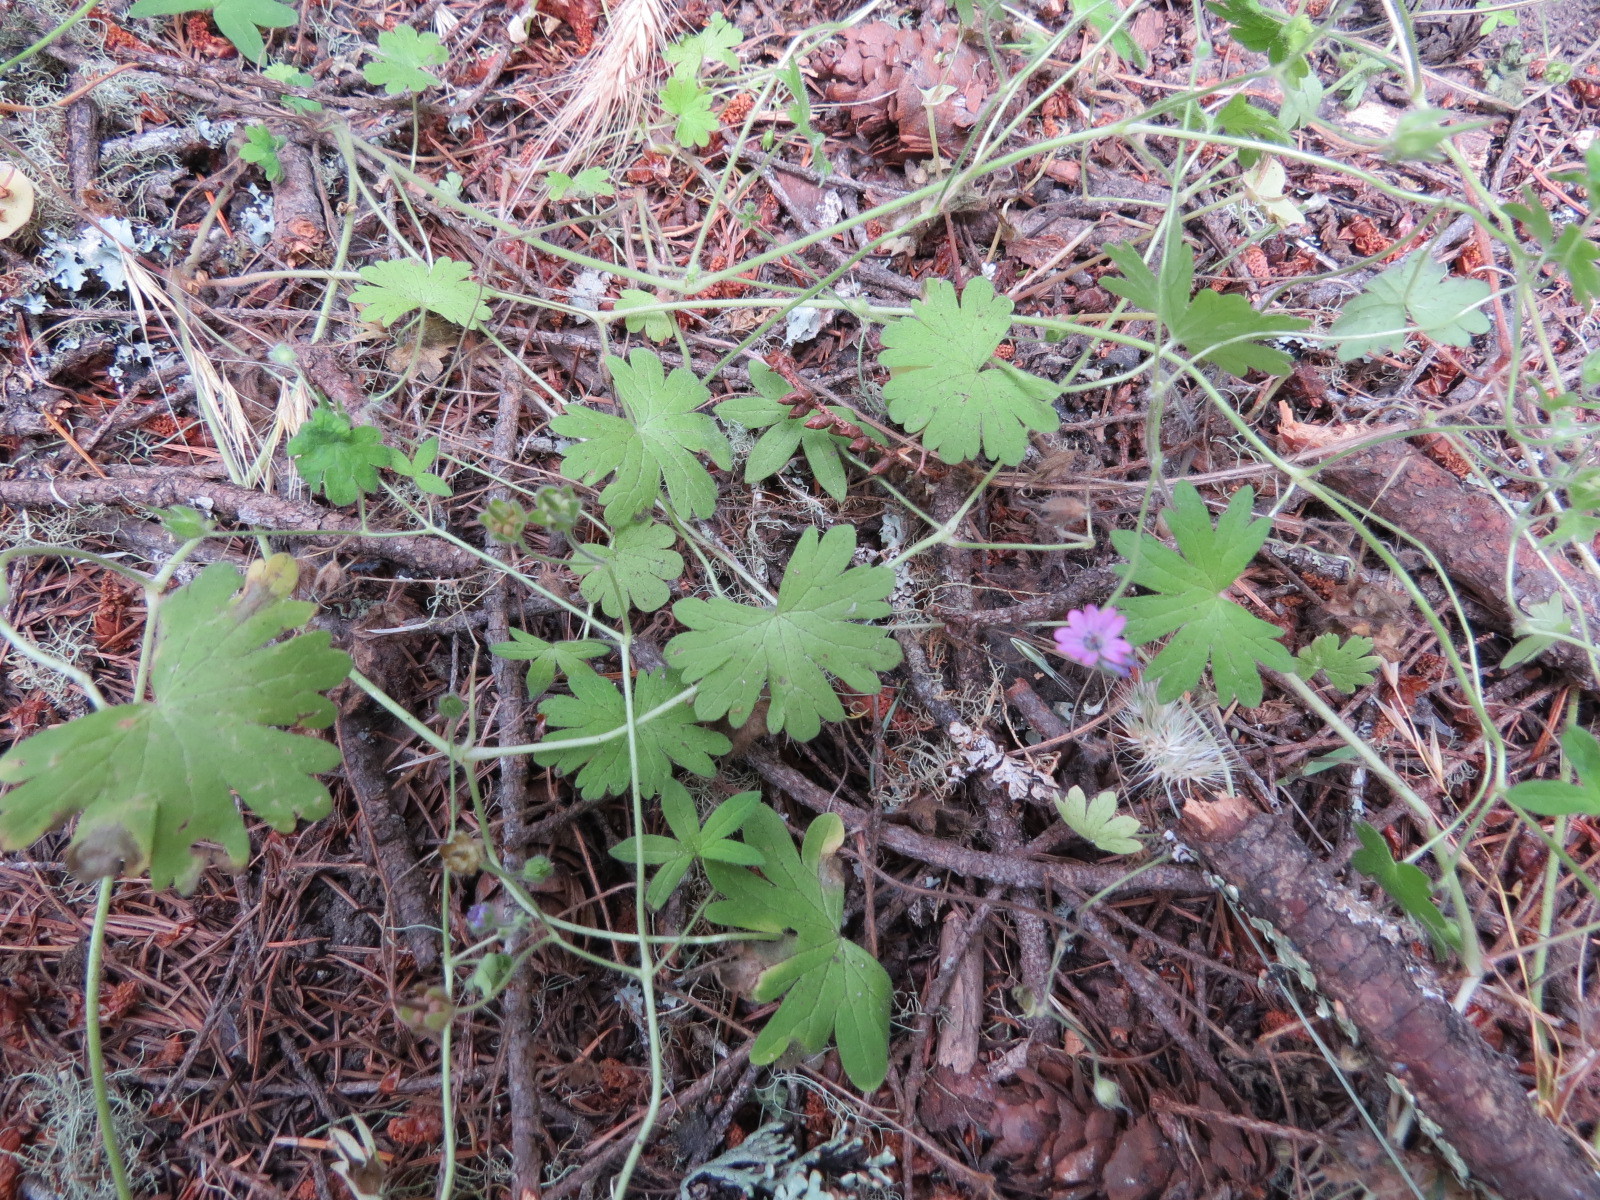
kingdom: Plantae
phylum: Tracheophyta
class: Magnoliopsida
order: Geraniales
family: Geraniaceae
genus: Geranium
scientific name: Geranium molle
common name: Dove's-foot crane's-bill
